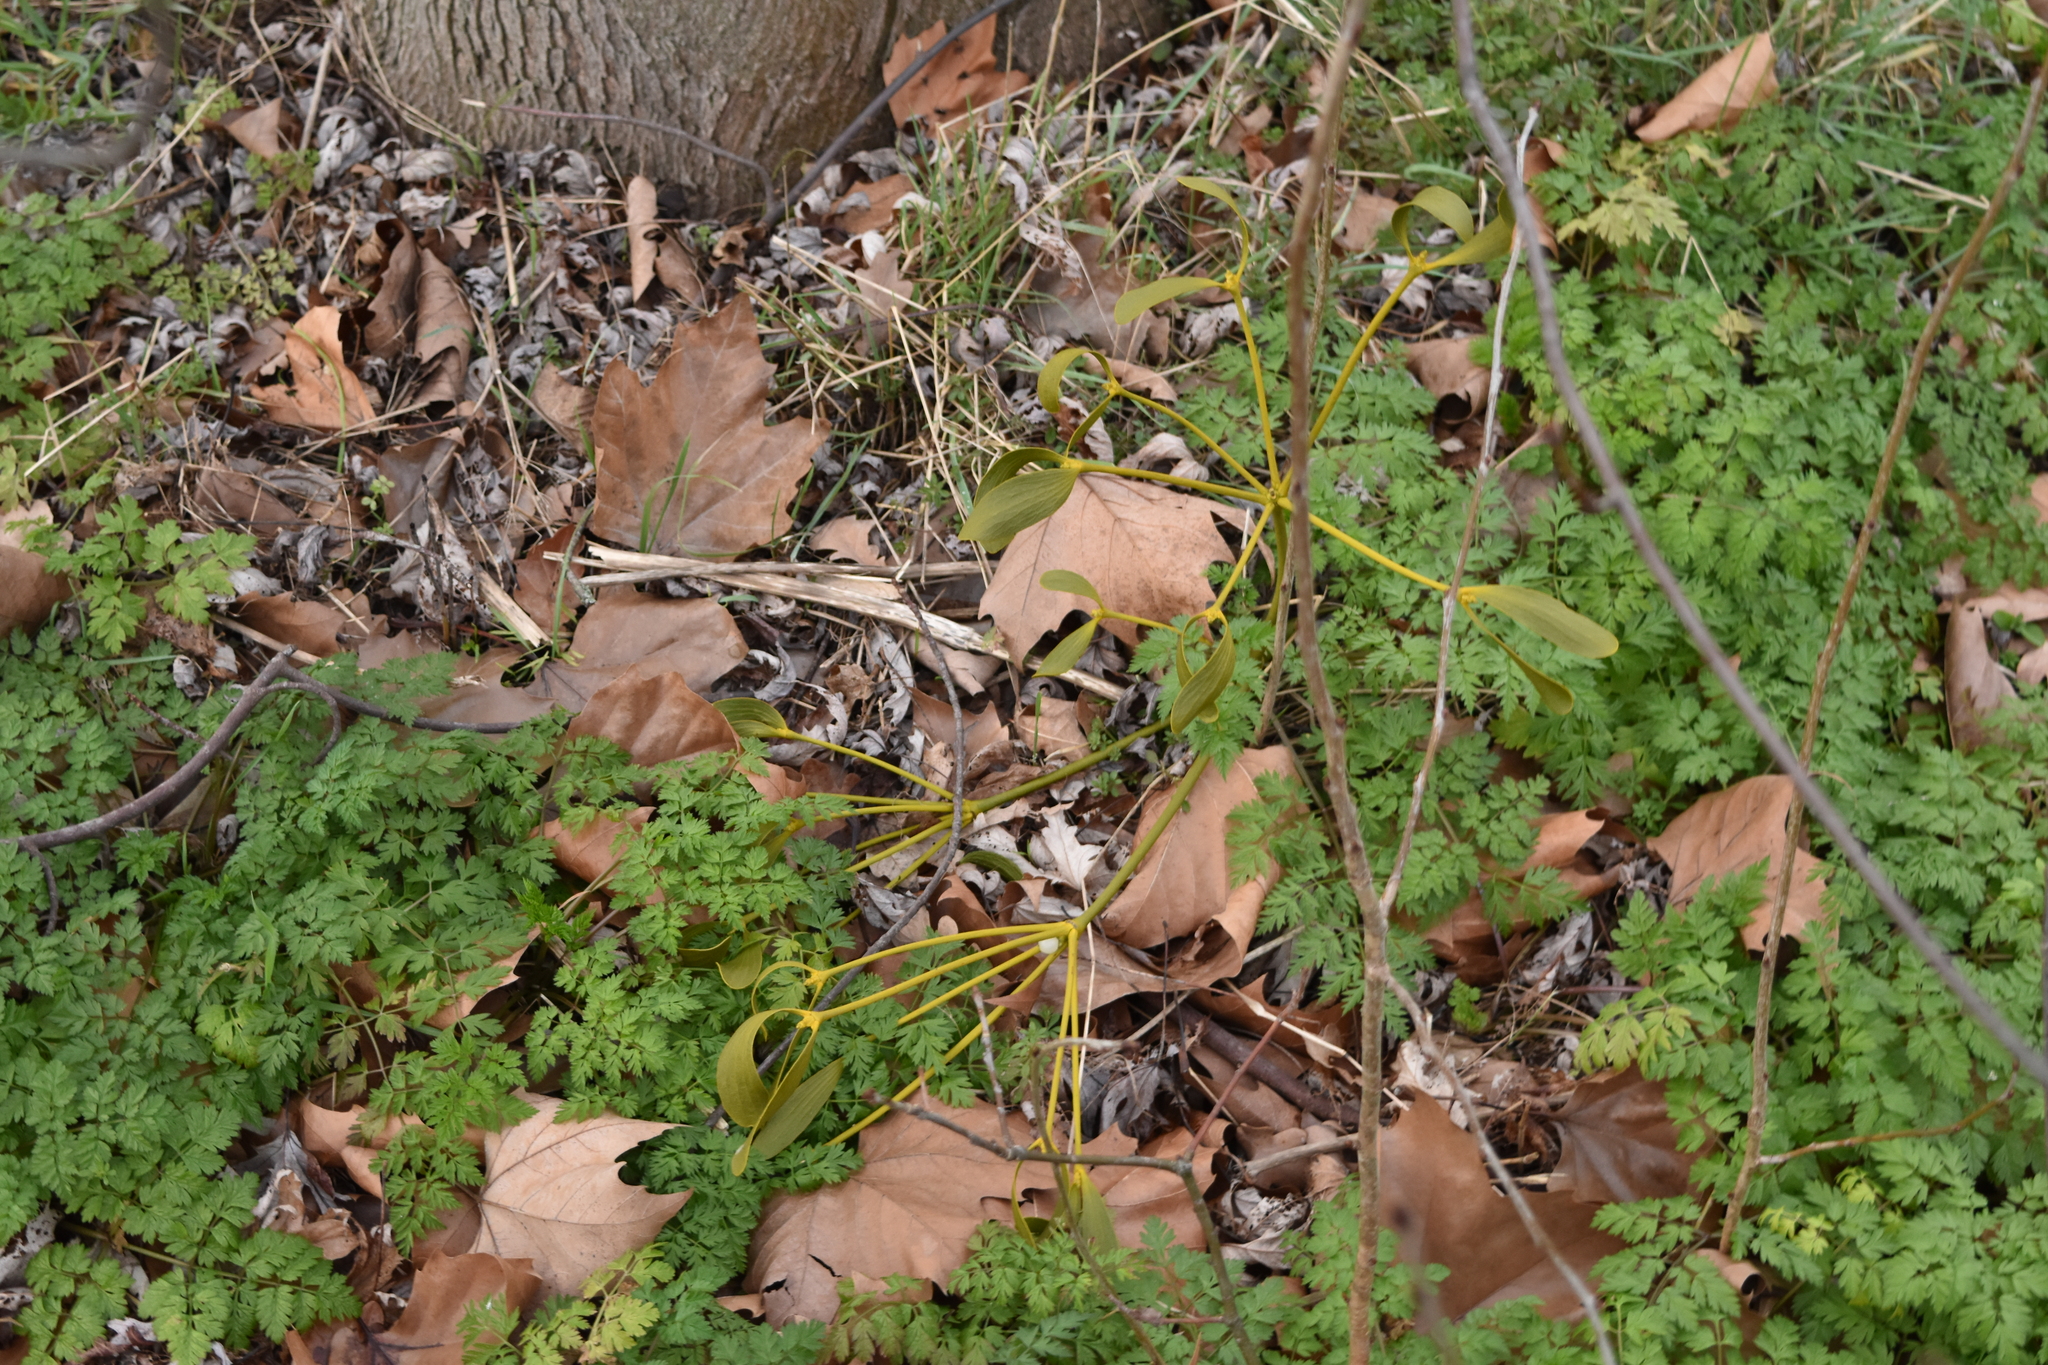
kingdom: Plantae
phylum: Tracheophyta
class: Magnoliopsida
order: Santalales
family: Viscaceae
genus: Viscum
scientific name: Viscum album
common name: Mistletoe
